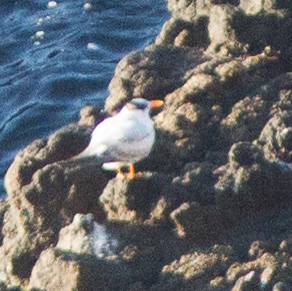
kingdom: Animalia
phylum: Chordata
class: Aves
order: Charadriiformes
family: Laridae
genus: Thalasseus
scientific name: Thalasseus maximus
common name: Royal tern
